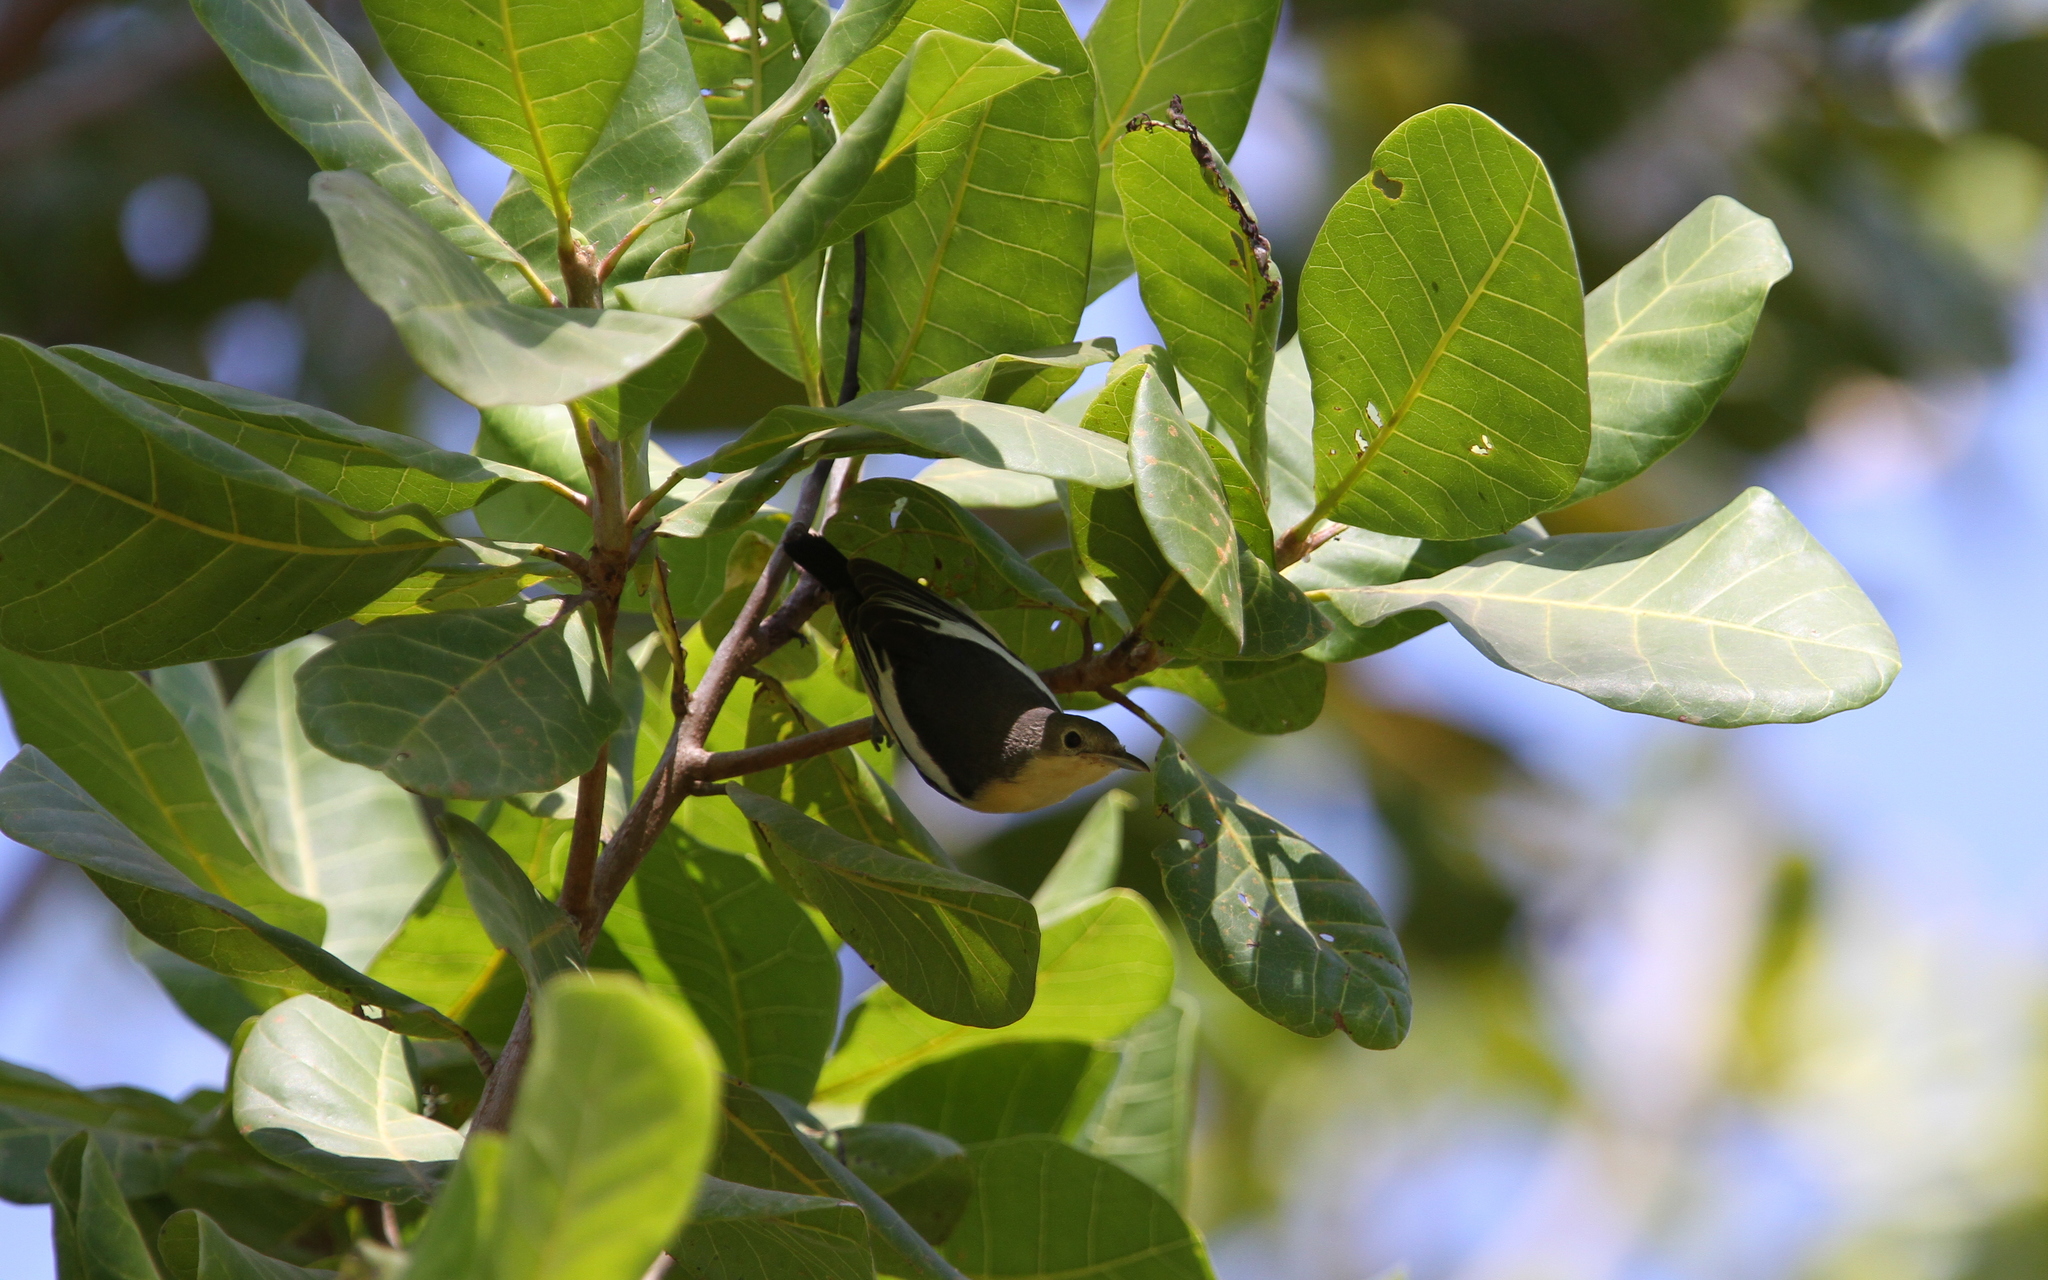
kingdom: Animalia
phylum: Chordata
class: Aves
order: Passeriformes
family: Hyliotidae
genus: Hyliota
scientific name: Hyliota flavigaster
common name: Yellow-bellied hyliota
